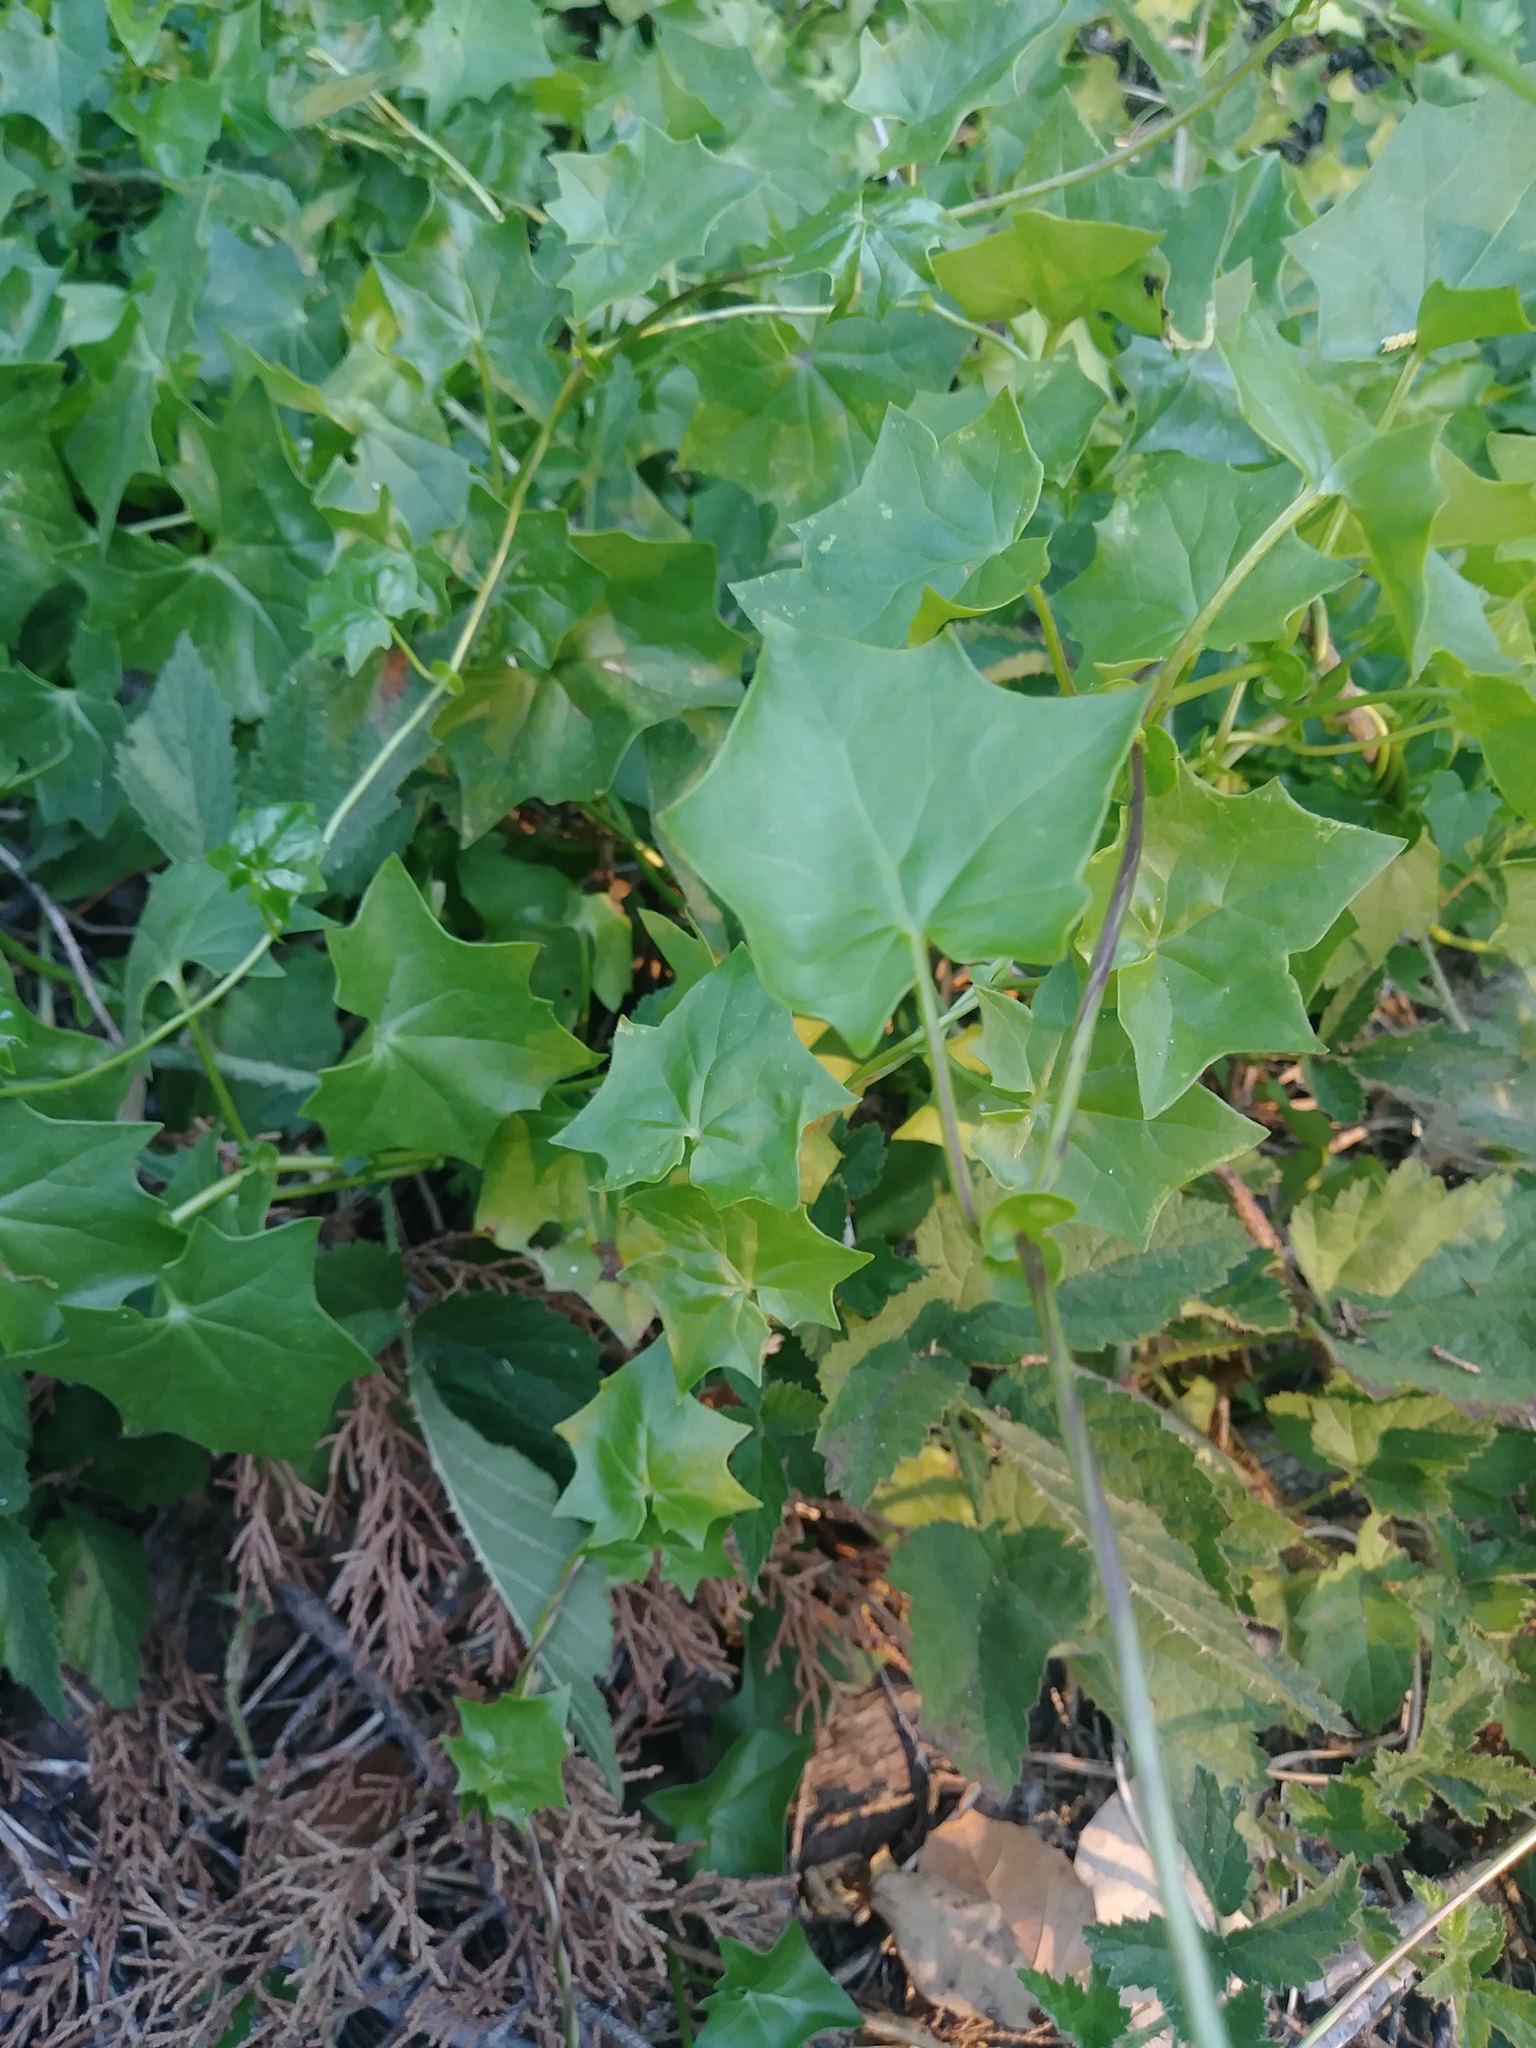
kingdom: Plantae
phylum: Tracheophyta
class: Magnoliopsida
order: Asterales
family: Asteraceae
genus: Delairea
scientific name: Delairea odorata
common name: Cape-ivy
